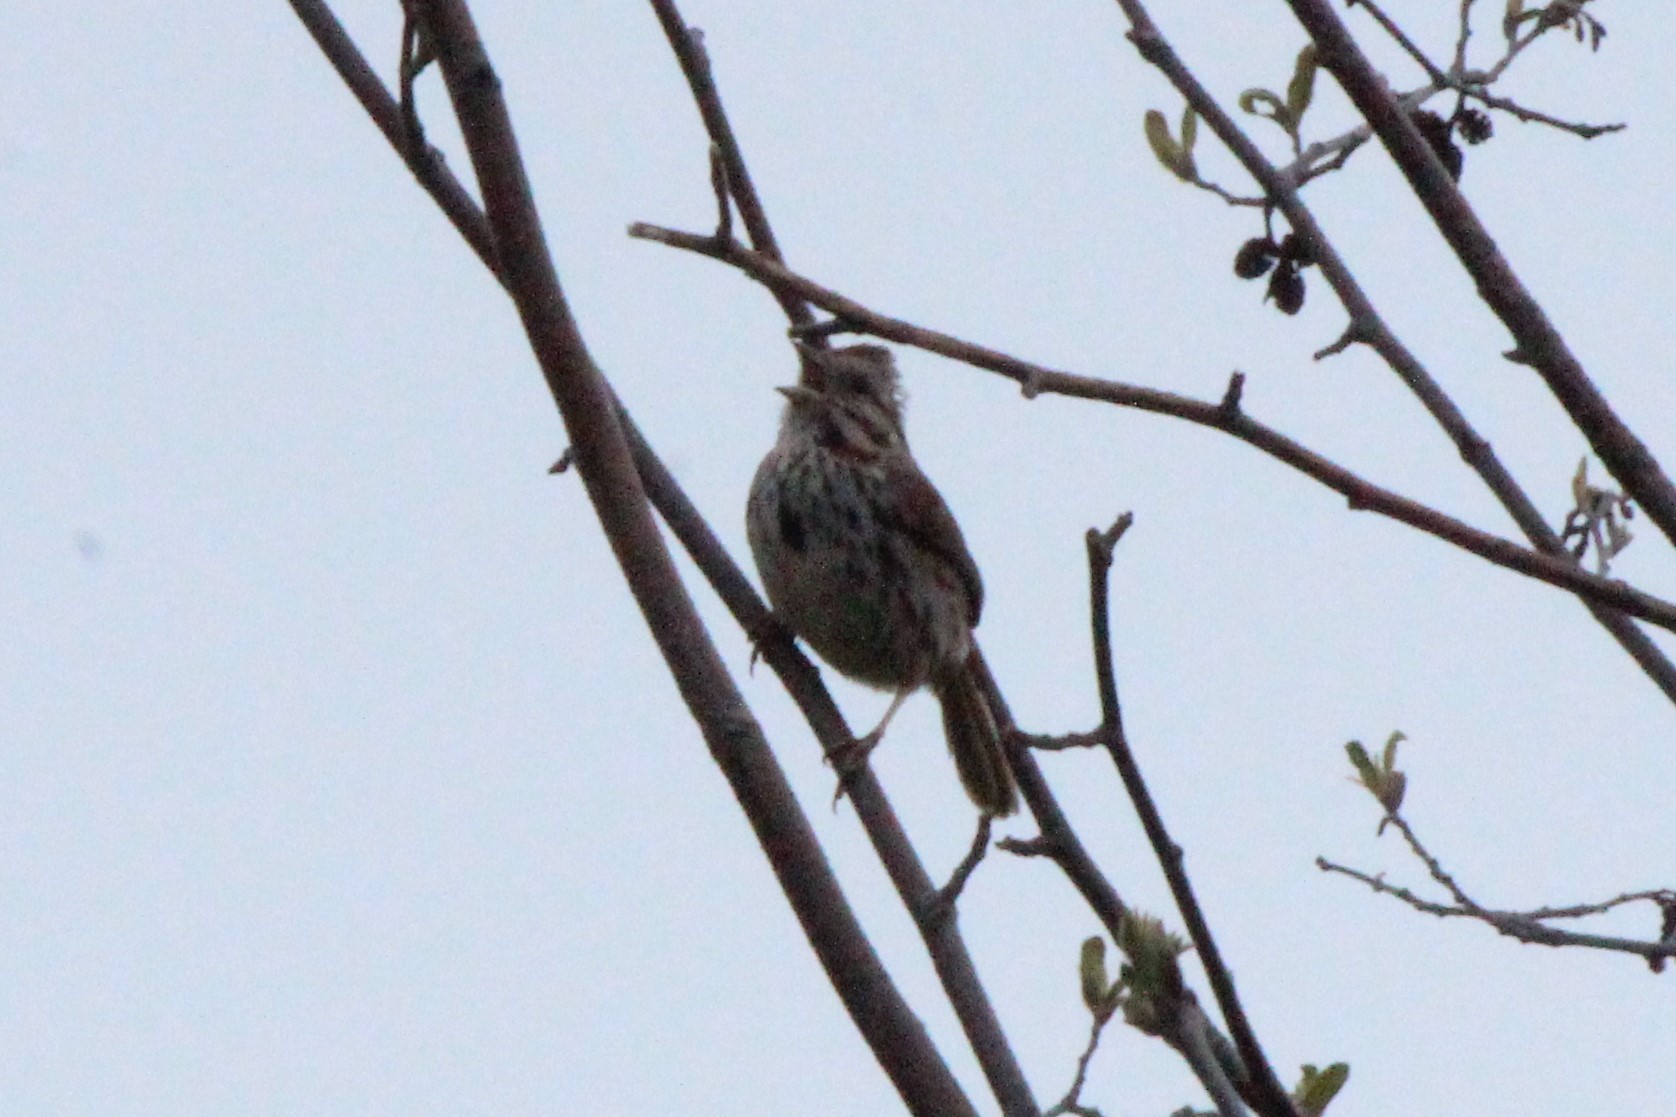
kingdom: Animalia
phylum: Chordata
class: Aves
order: Passeriformes
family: Passerellidae
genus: Melospiza
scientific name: Melospiza melodia
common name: Song sparrow
